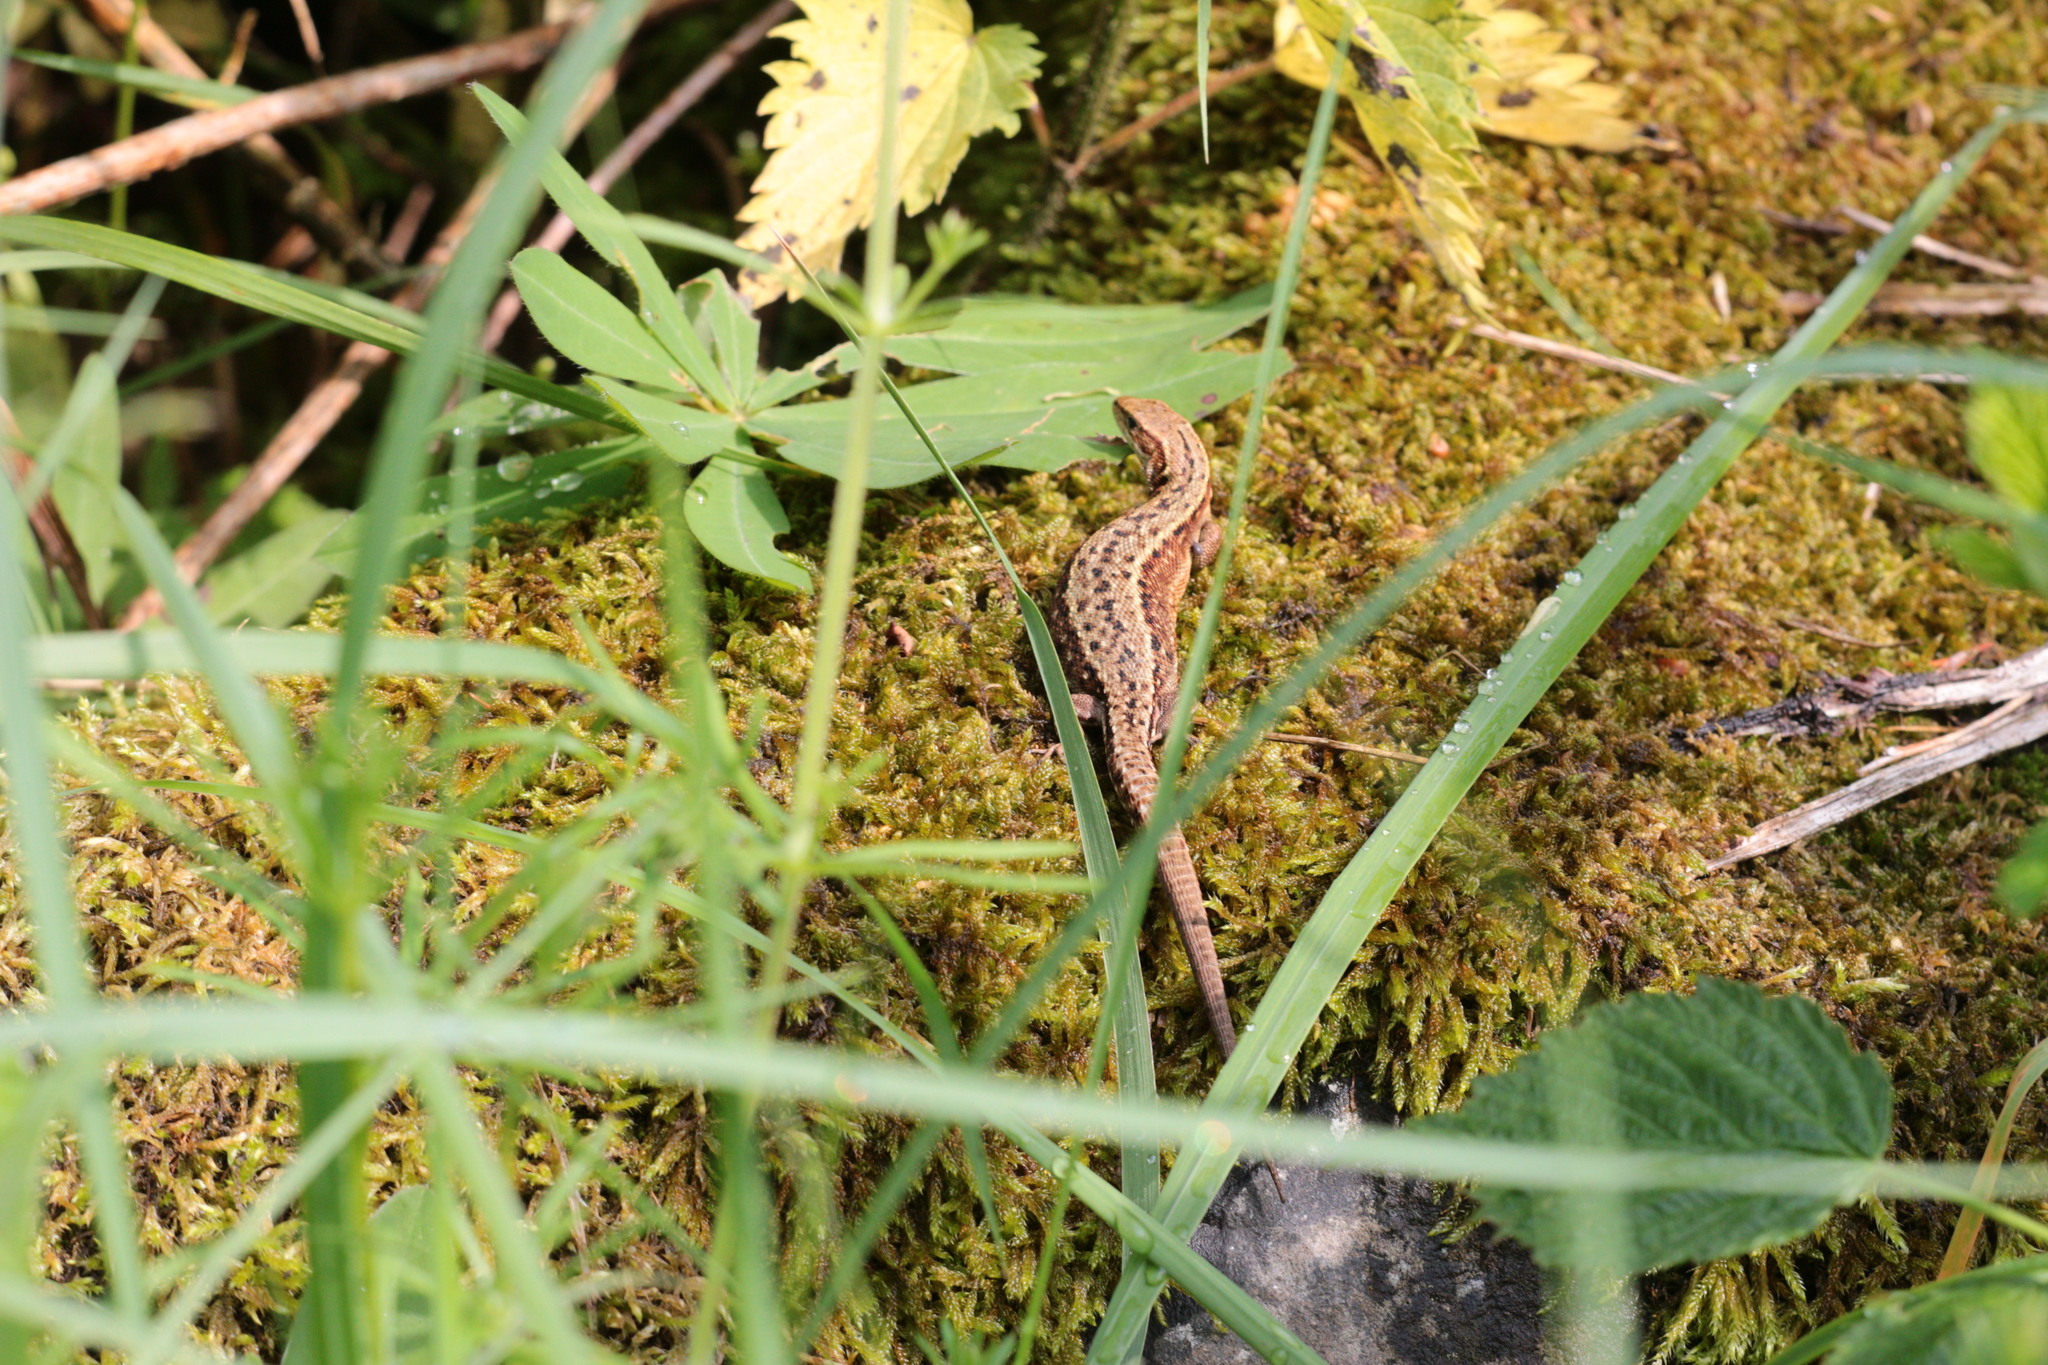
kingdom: Animalia
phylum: Chordata
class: Squamata
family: Lacertidae
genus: Zootoca
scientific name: Zootoca vivipara
